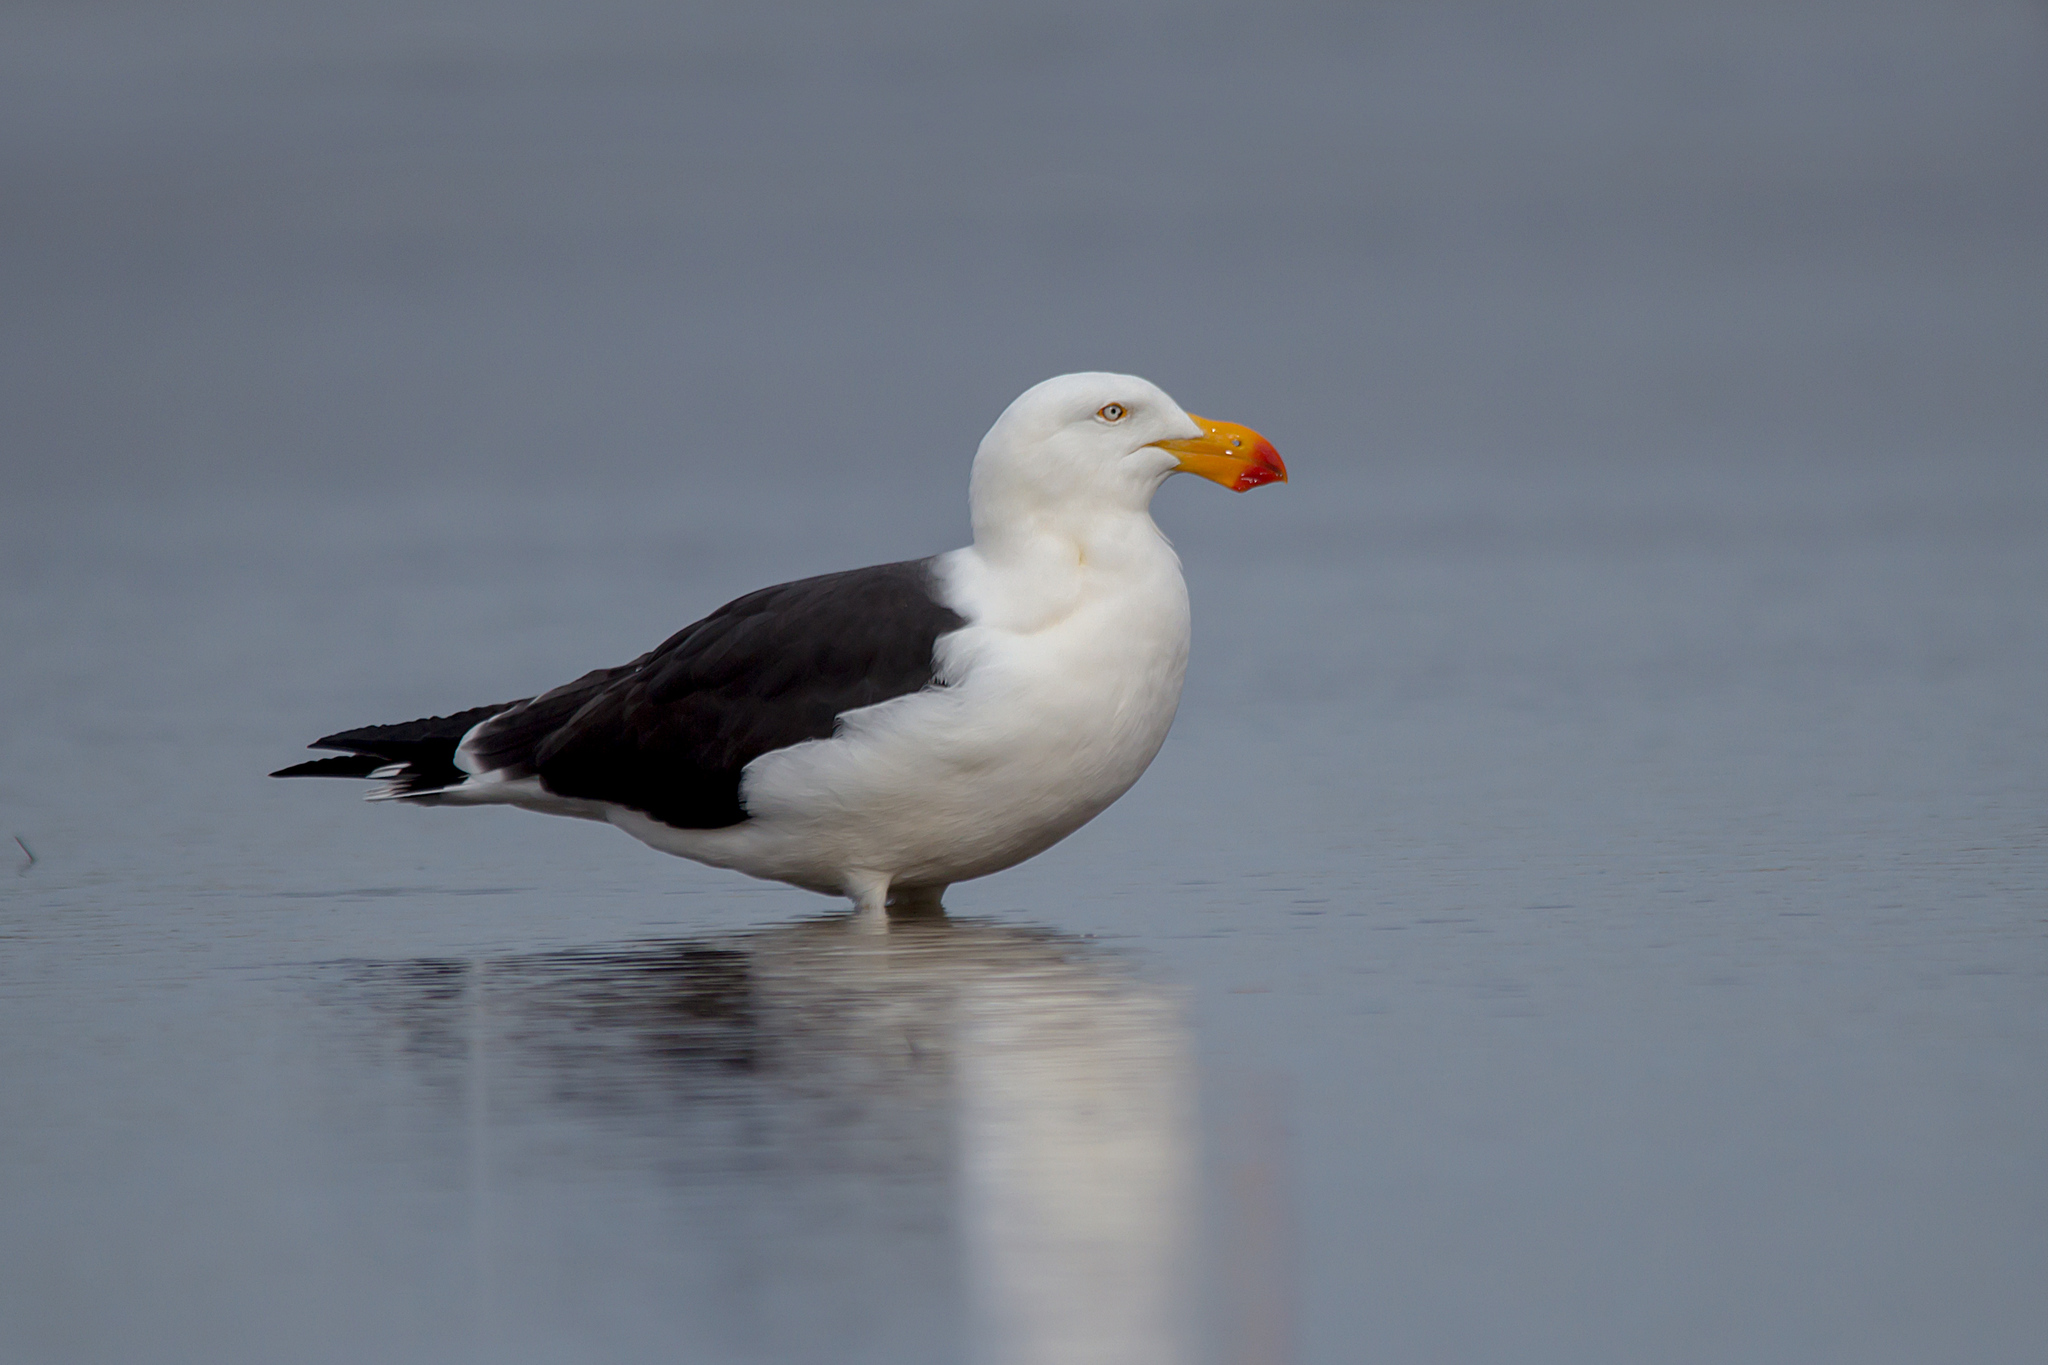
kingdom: Animalia
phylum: Chordata
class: Aves
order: Charadriiformes
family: Laridae
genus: Larus
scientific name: Larus pacificus
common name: Pacific gull
